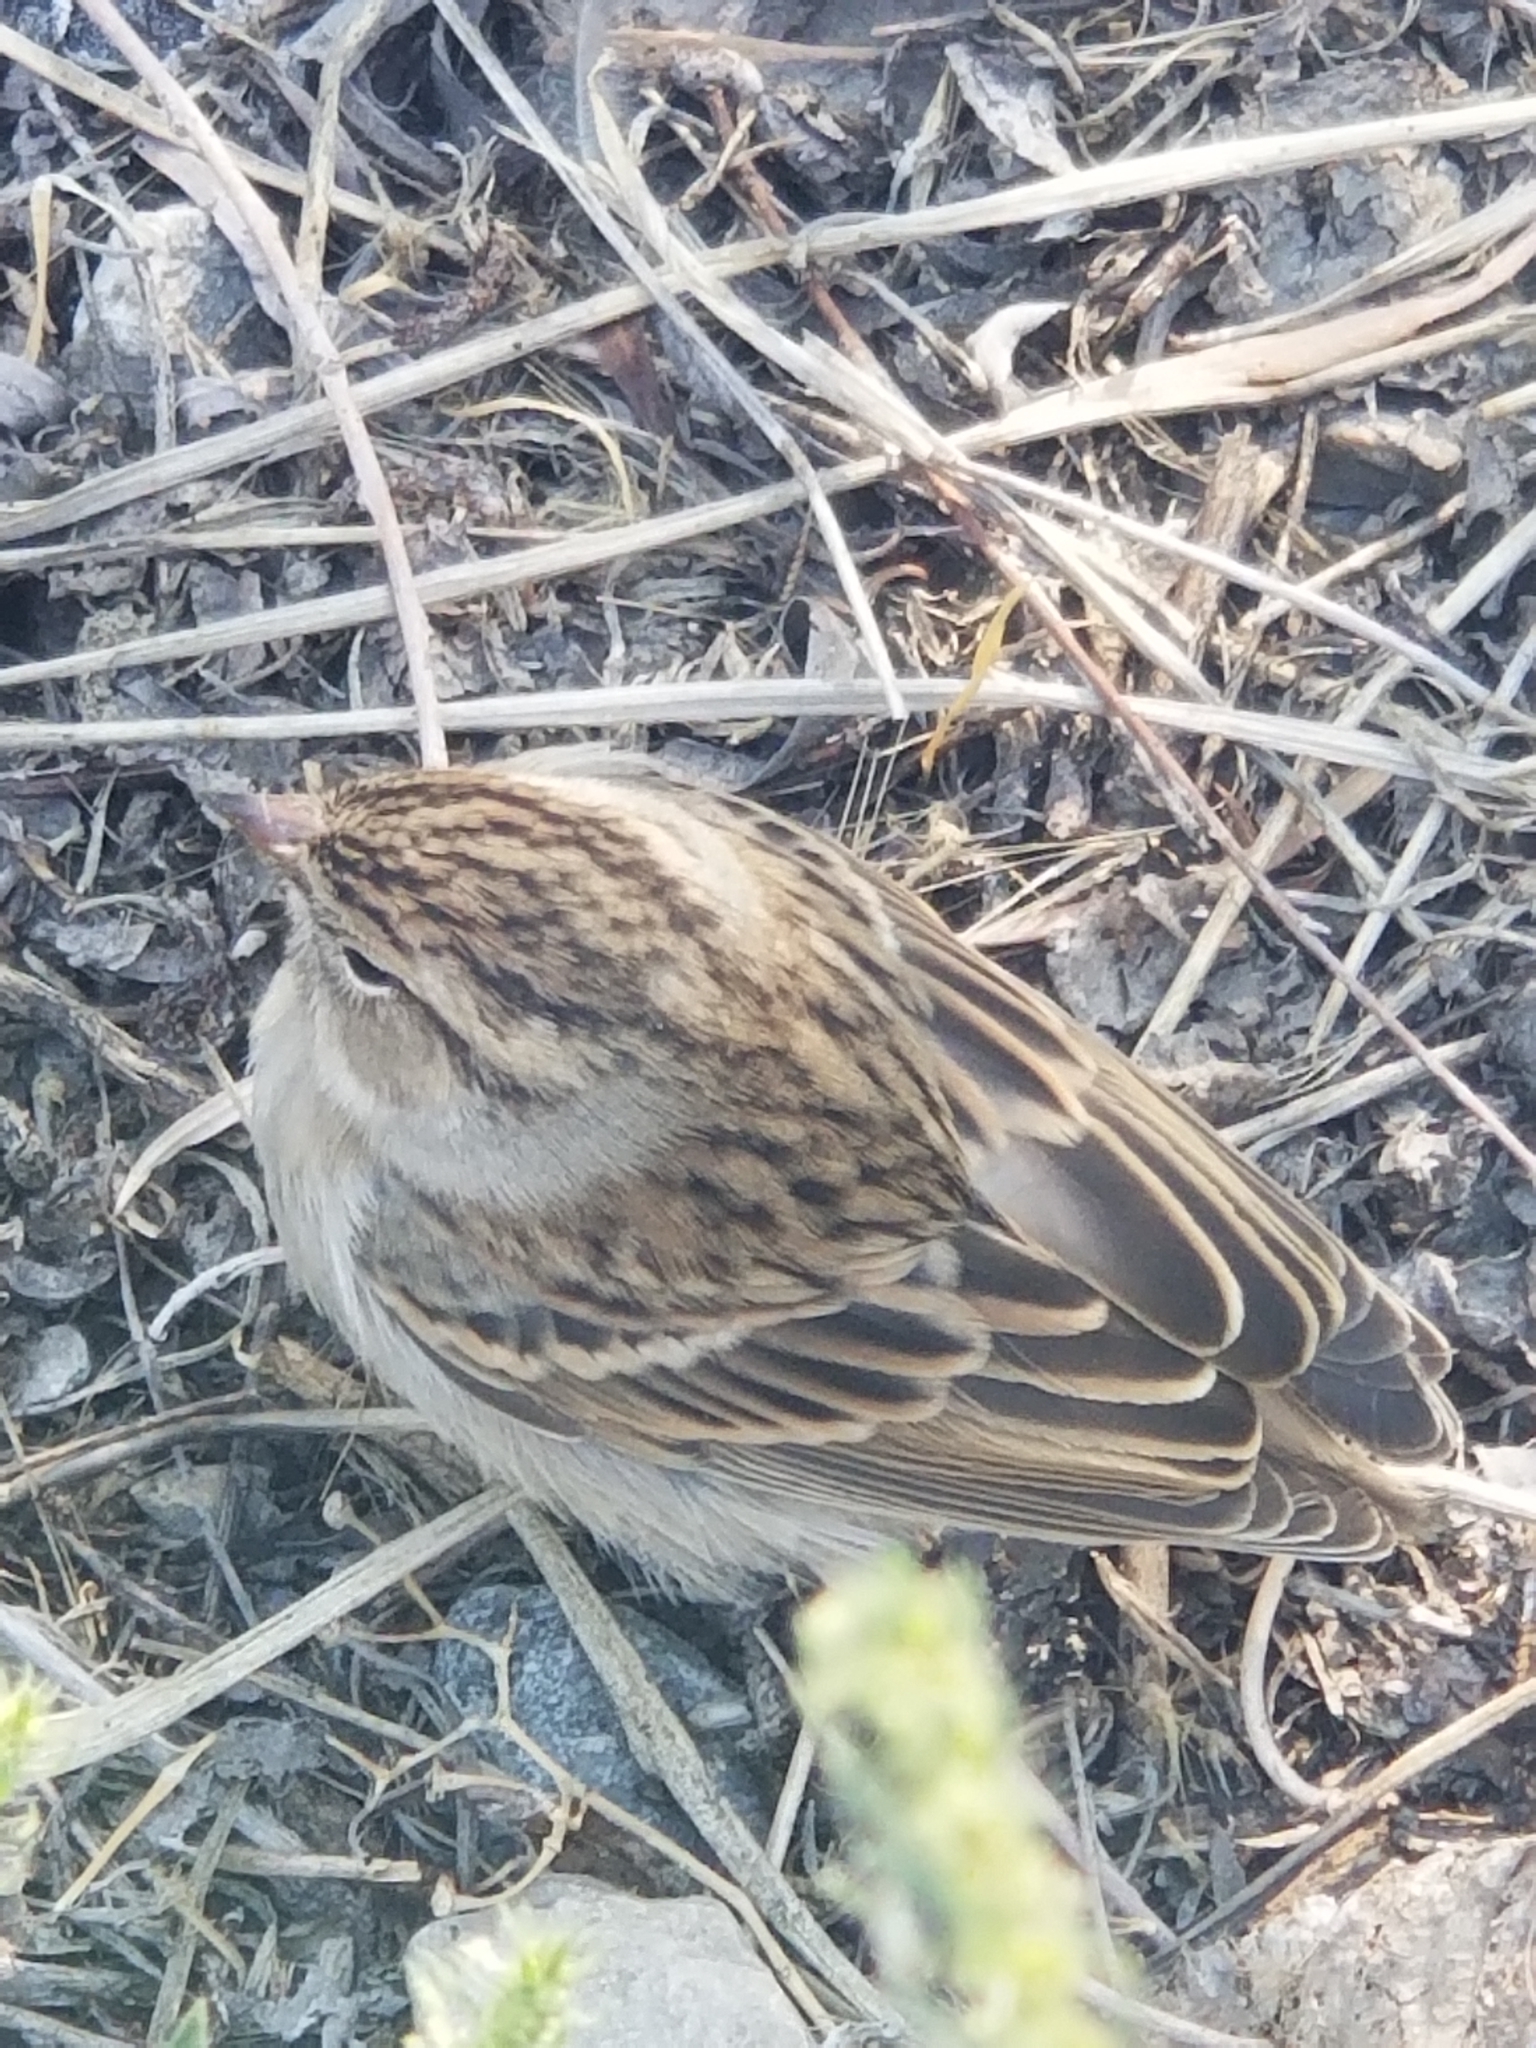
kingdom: Animalia
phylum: Chordata
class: Aves
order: Passeriformes
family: Passerellidae
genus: Spizella
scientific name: Spizella breweri
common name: Brewer's sparrow
